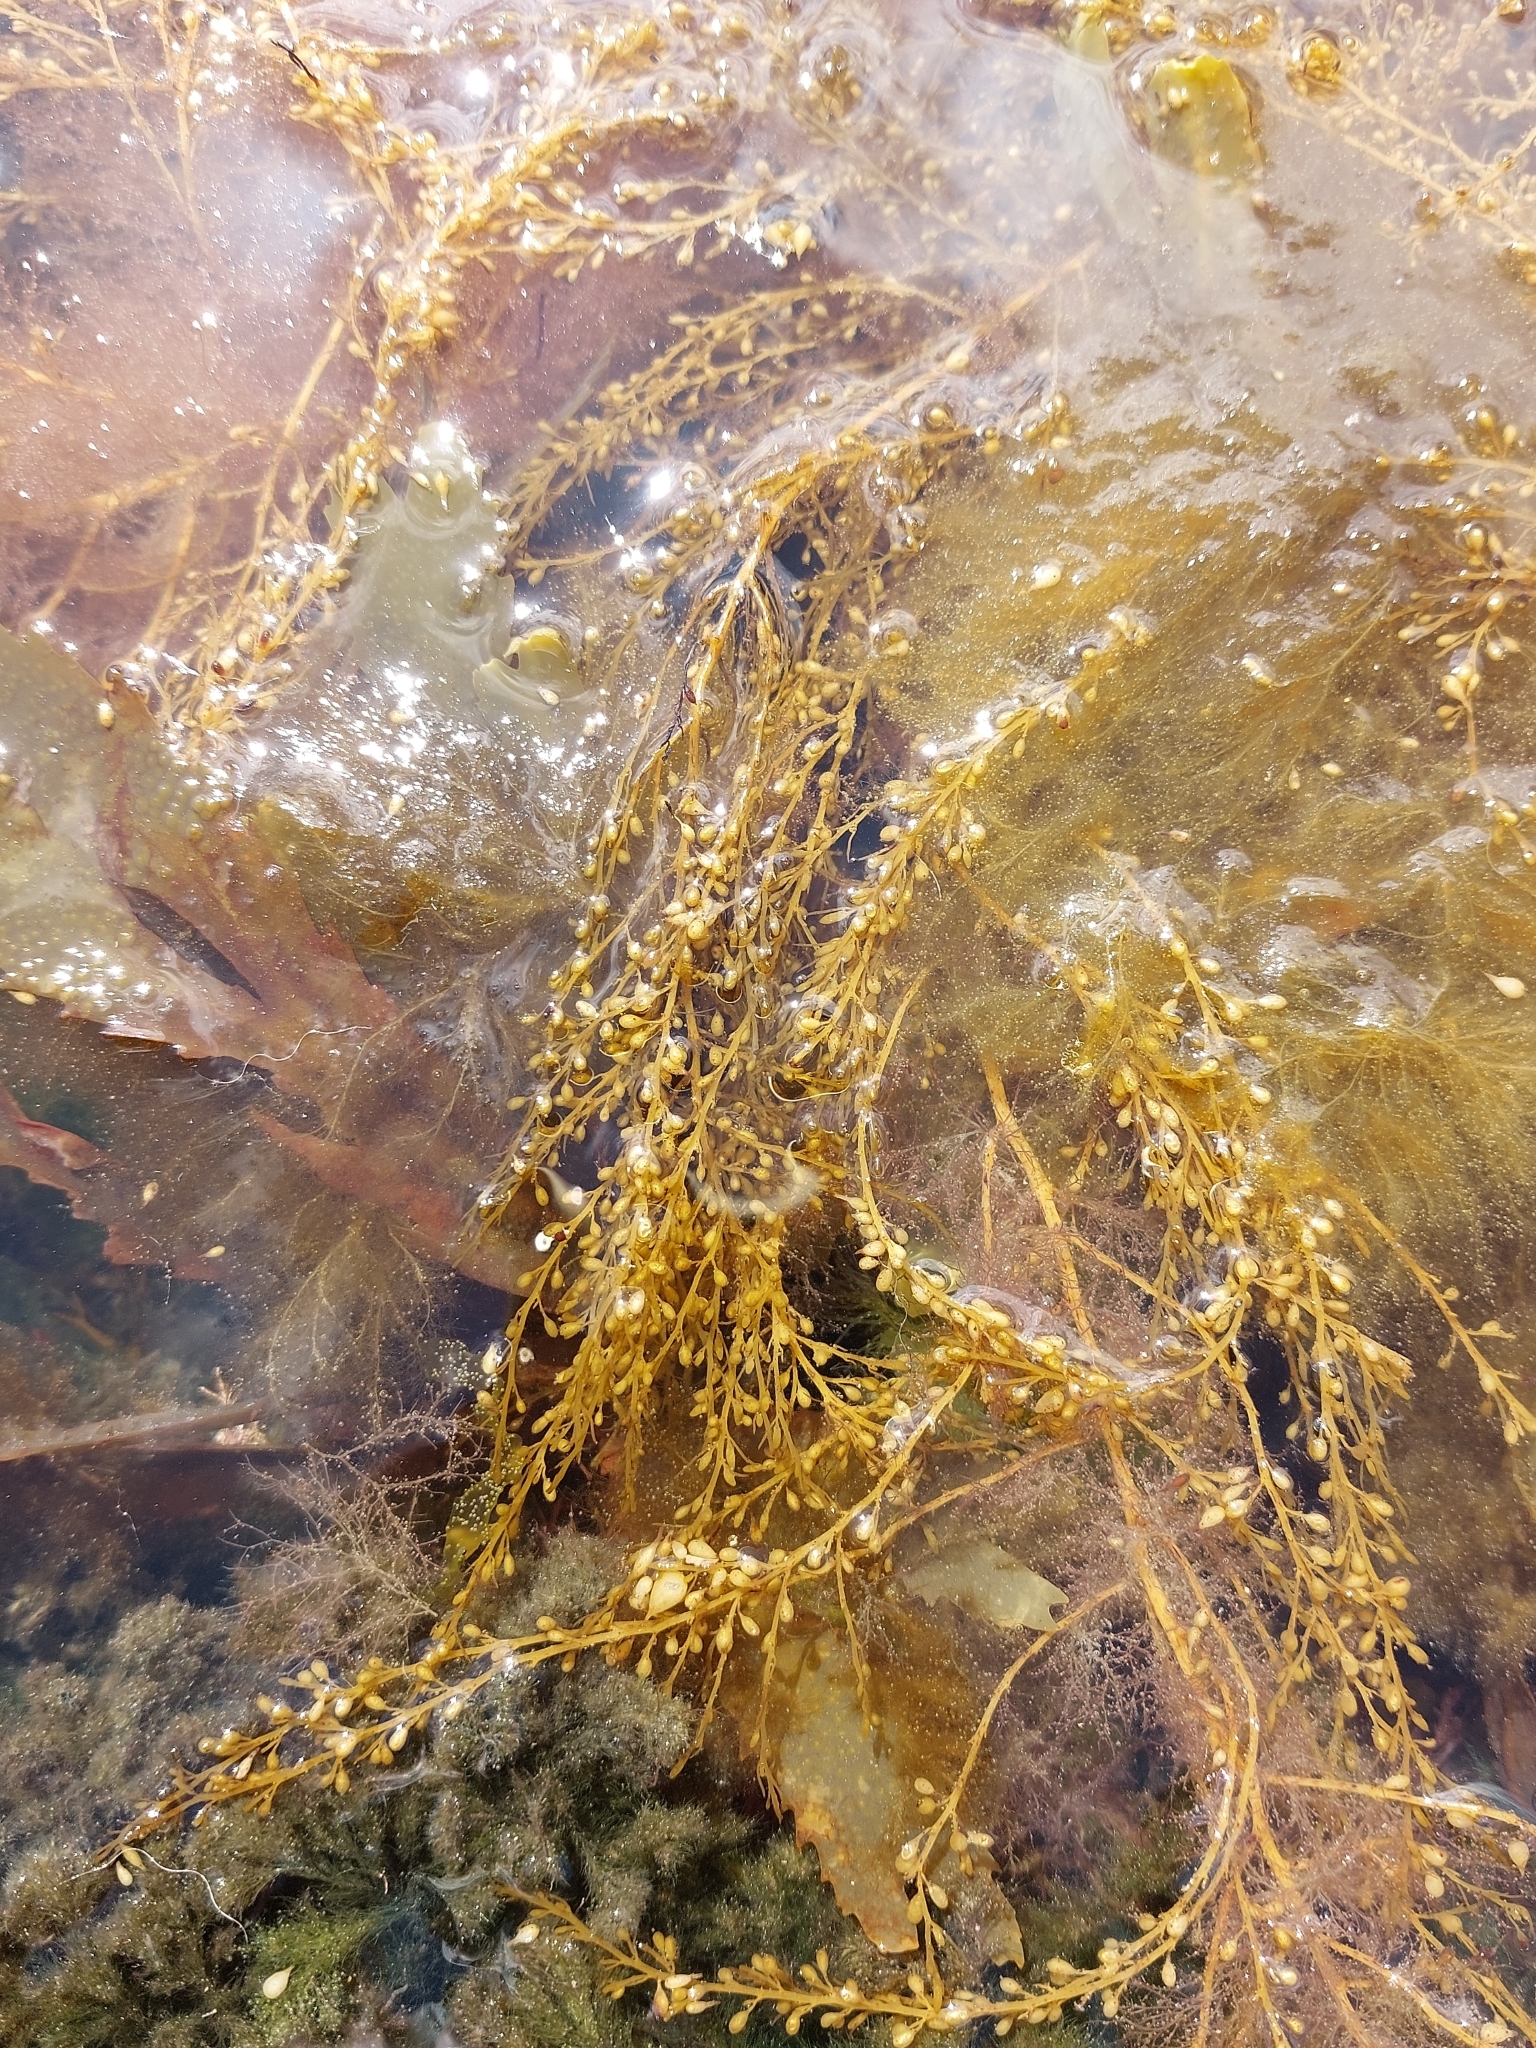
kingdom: Chromista
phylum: Ochrophyta
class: Phaeophyceae
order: Fucales
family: Sargassaceae
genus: Sargassum
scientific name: Sargassum muticum
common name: Japweed
